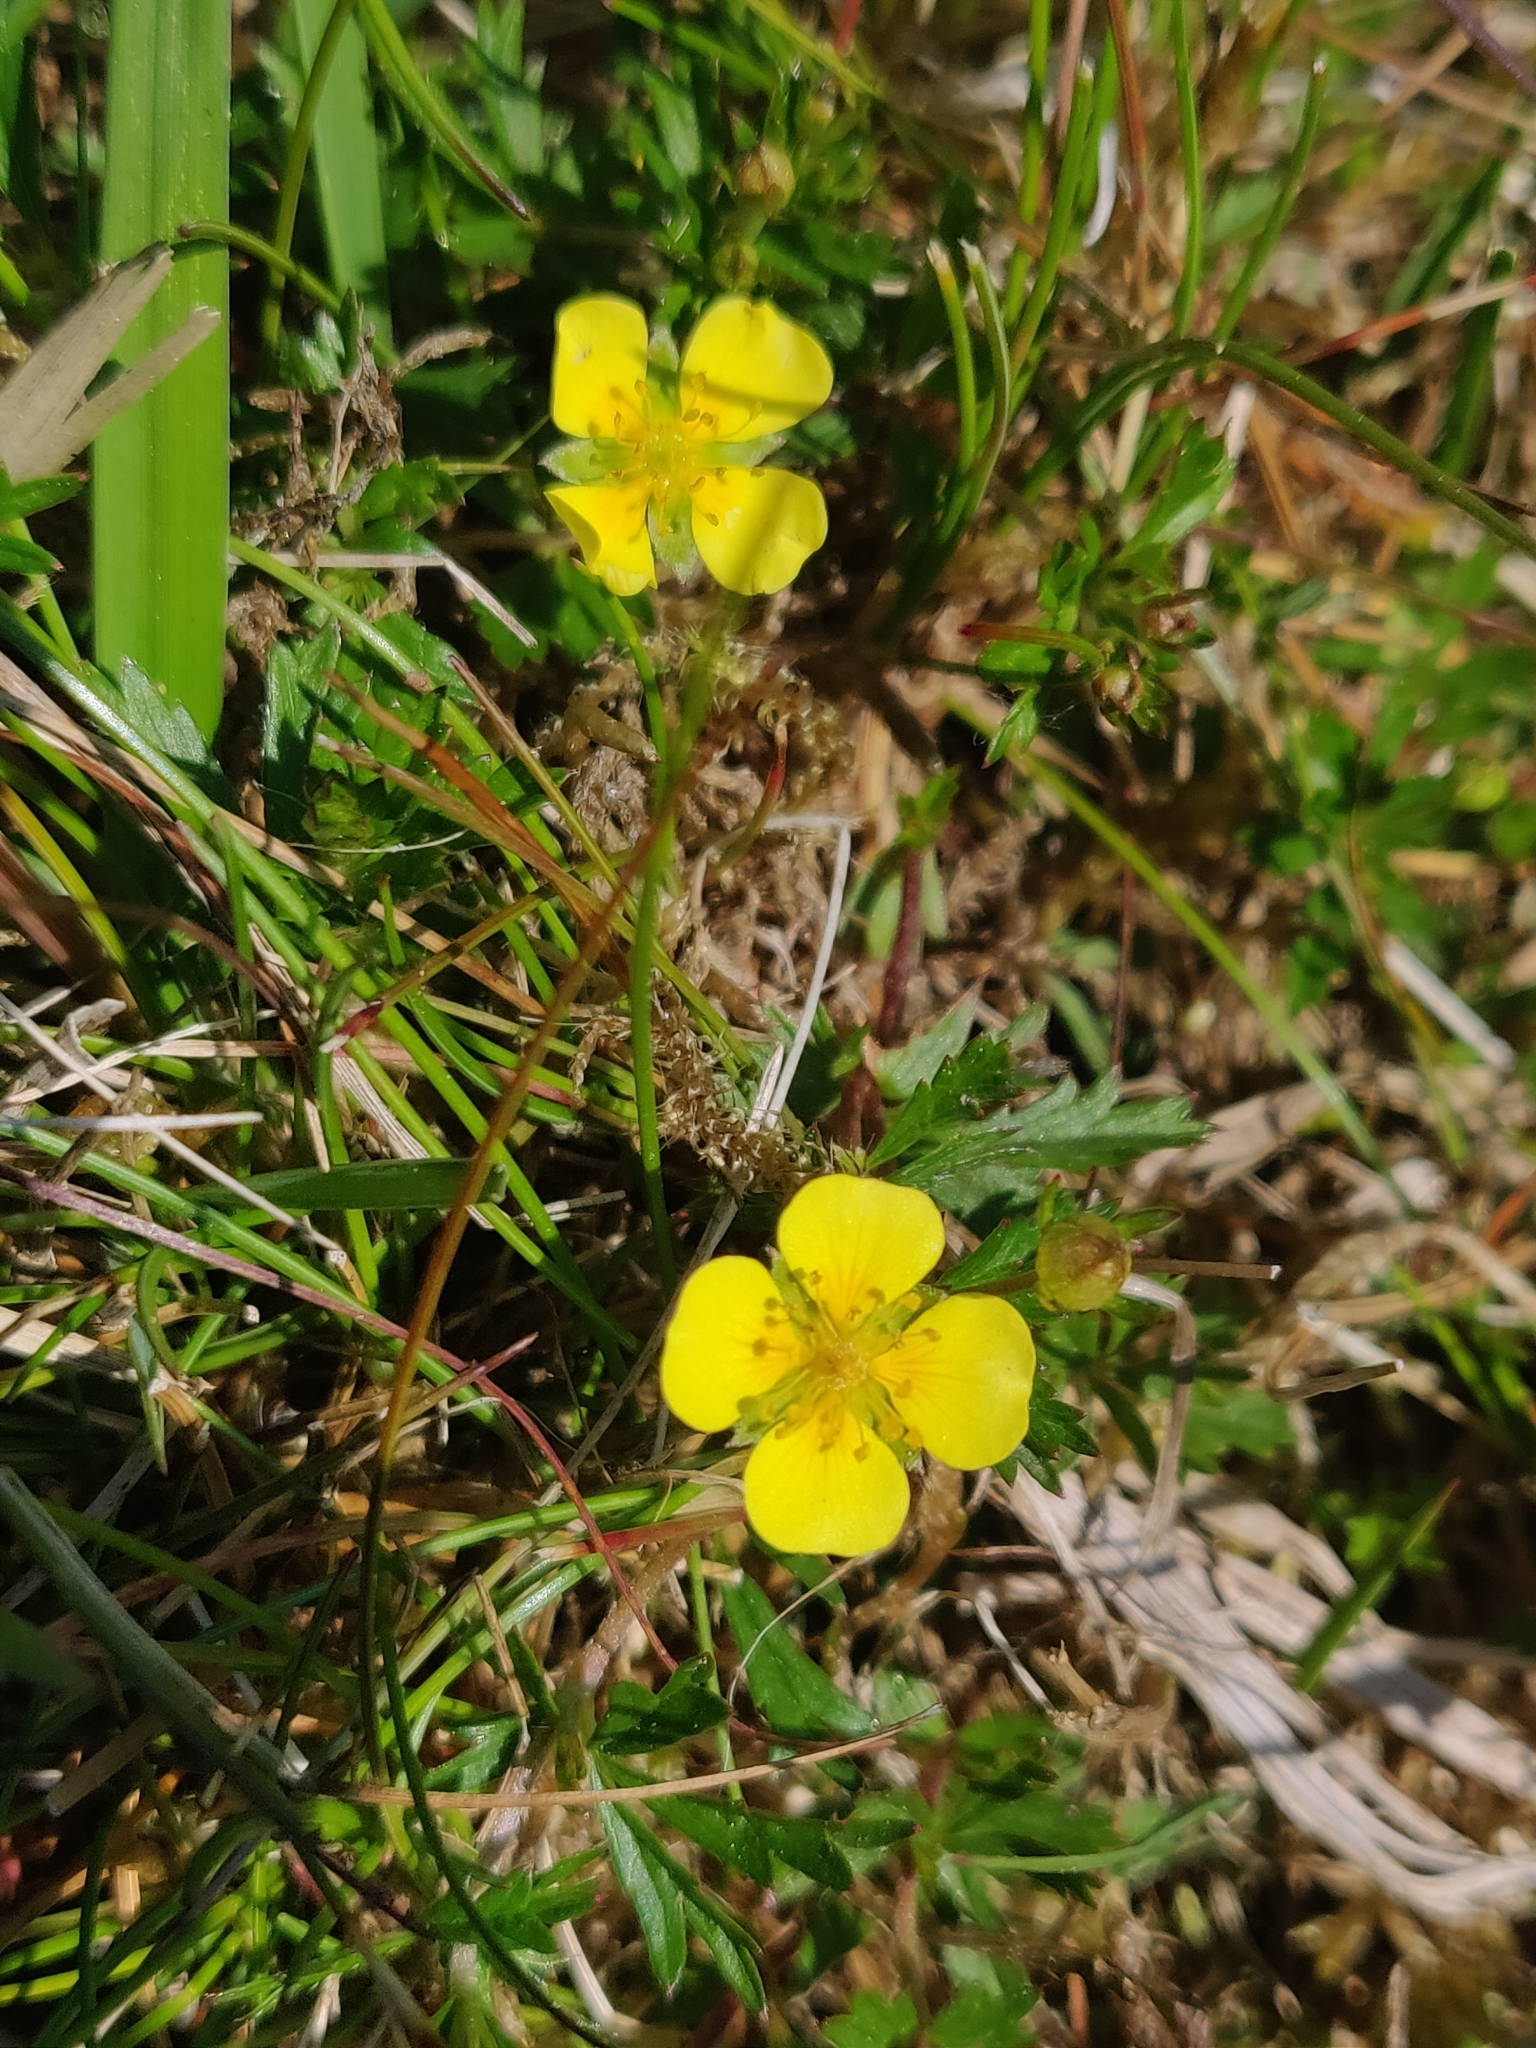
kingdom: Plantae
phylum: Tracheophyta
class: Magnoliopsida
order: Rosales
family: Rosaceae
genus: Potentilla
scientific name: Potentilla erecta
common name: Tormentil
